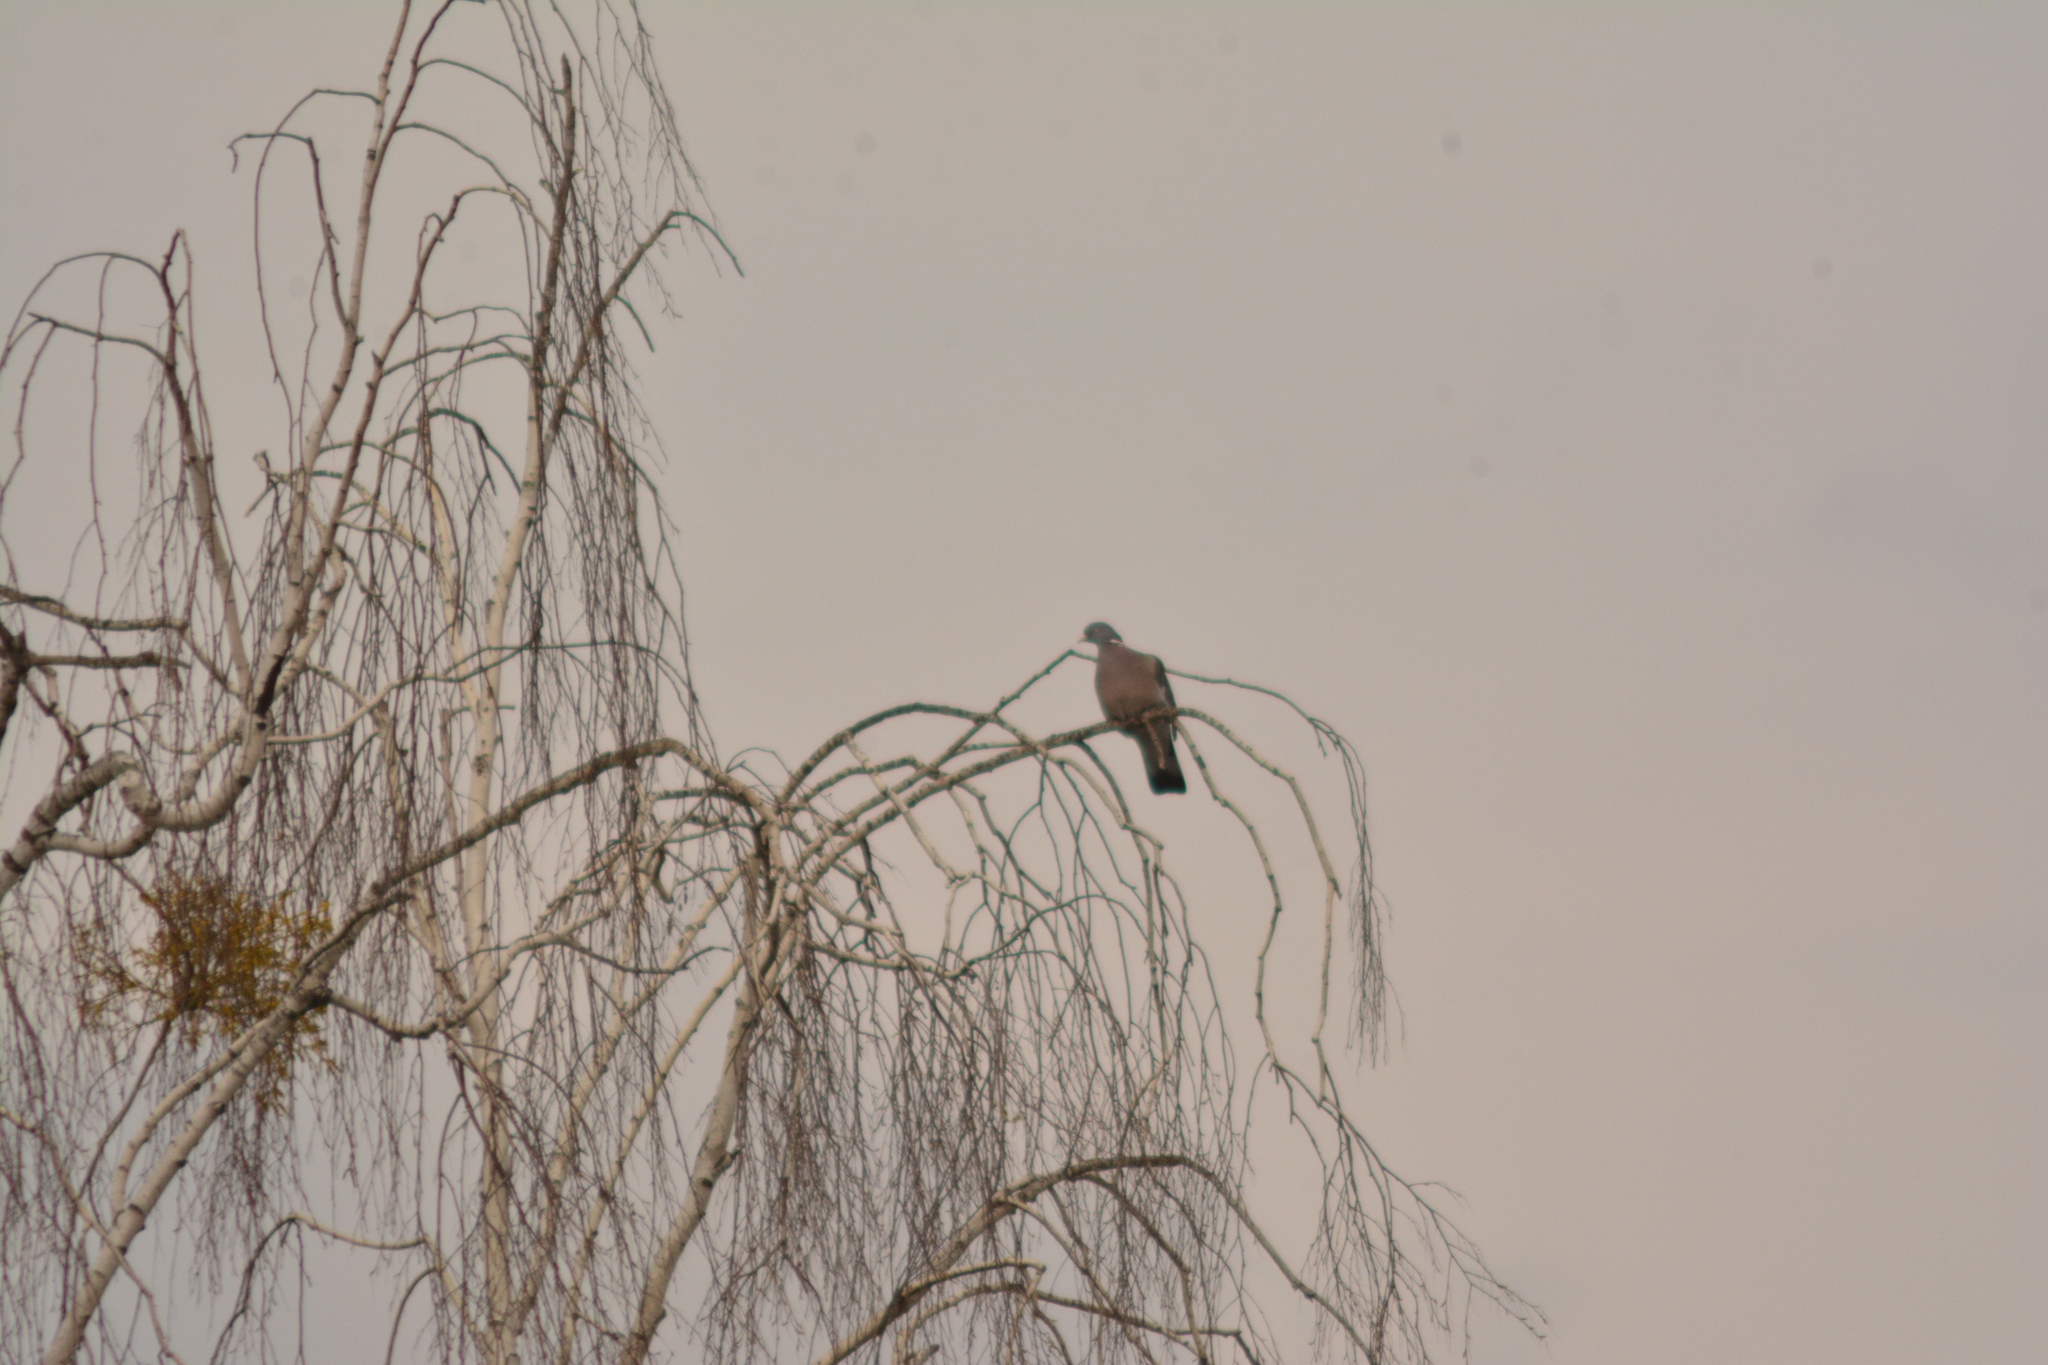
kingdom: Animalia
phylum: Chordata
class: Aves
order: Columbiformes
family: Columbidae
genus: Columba
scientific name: Columba palumbus
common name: Common wood pigeon
